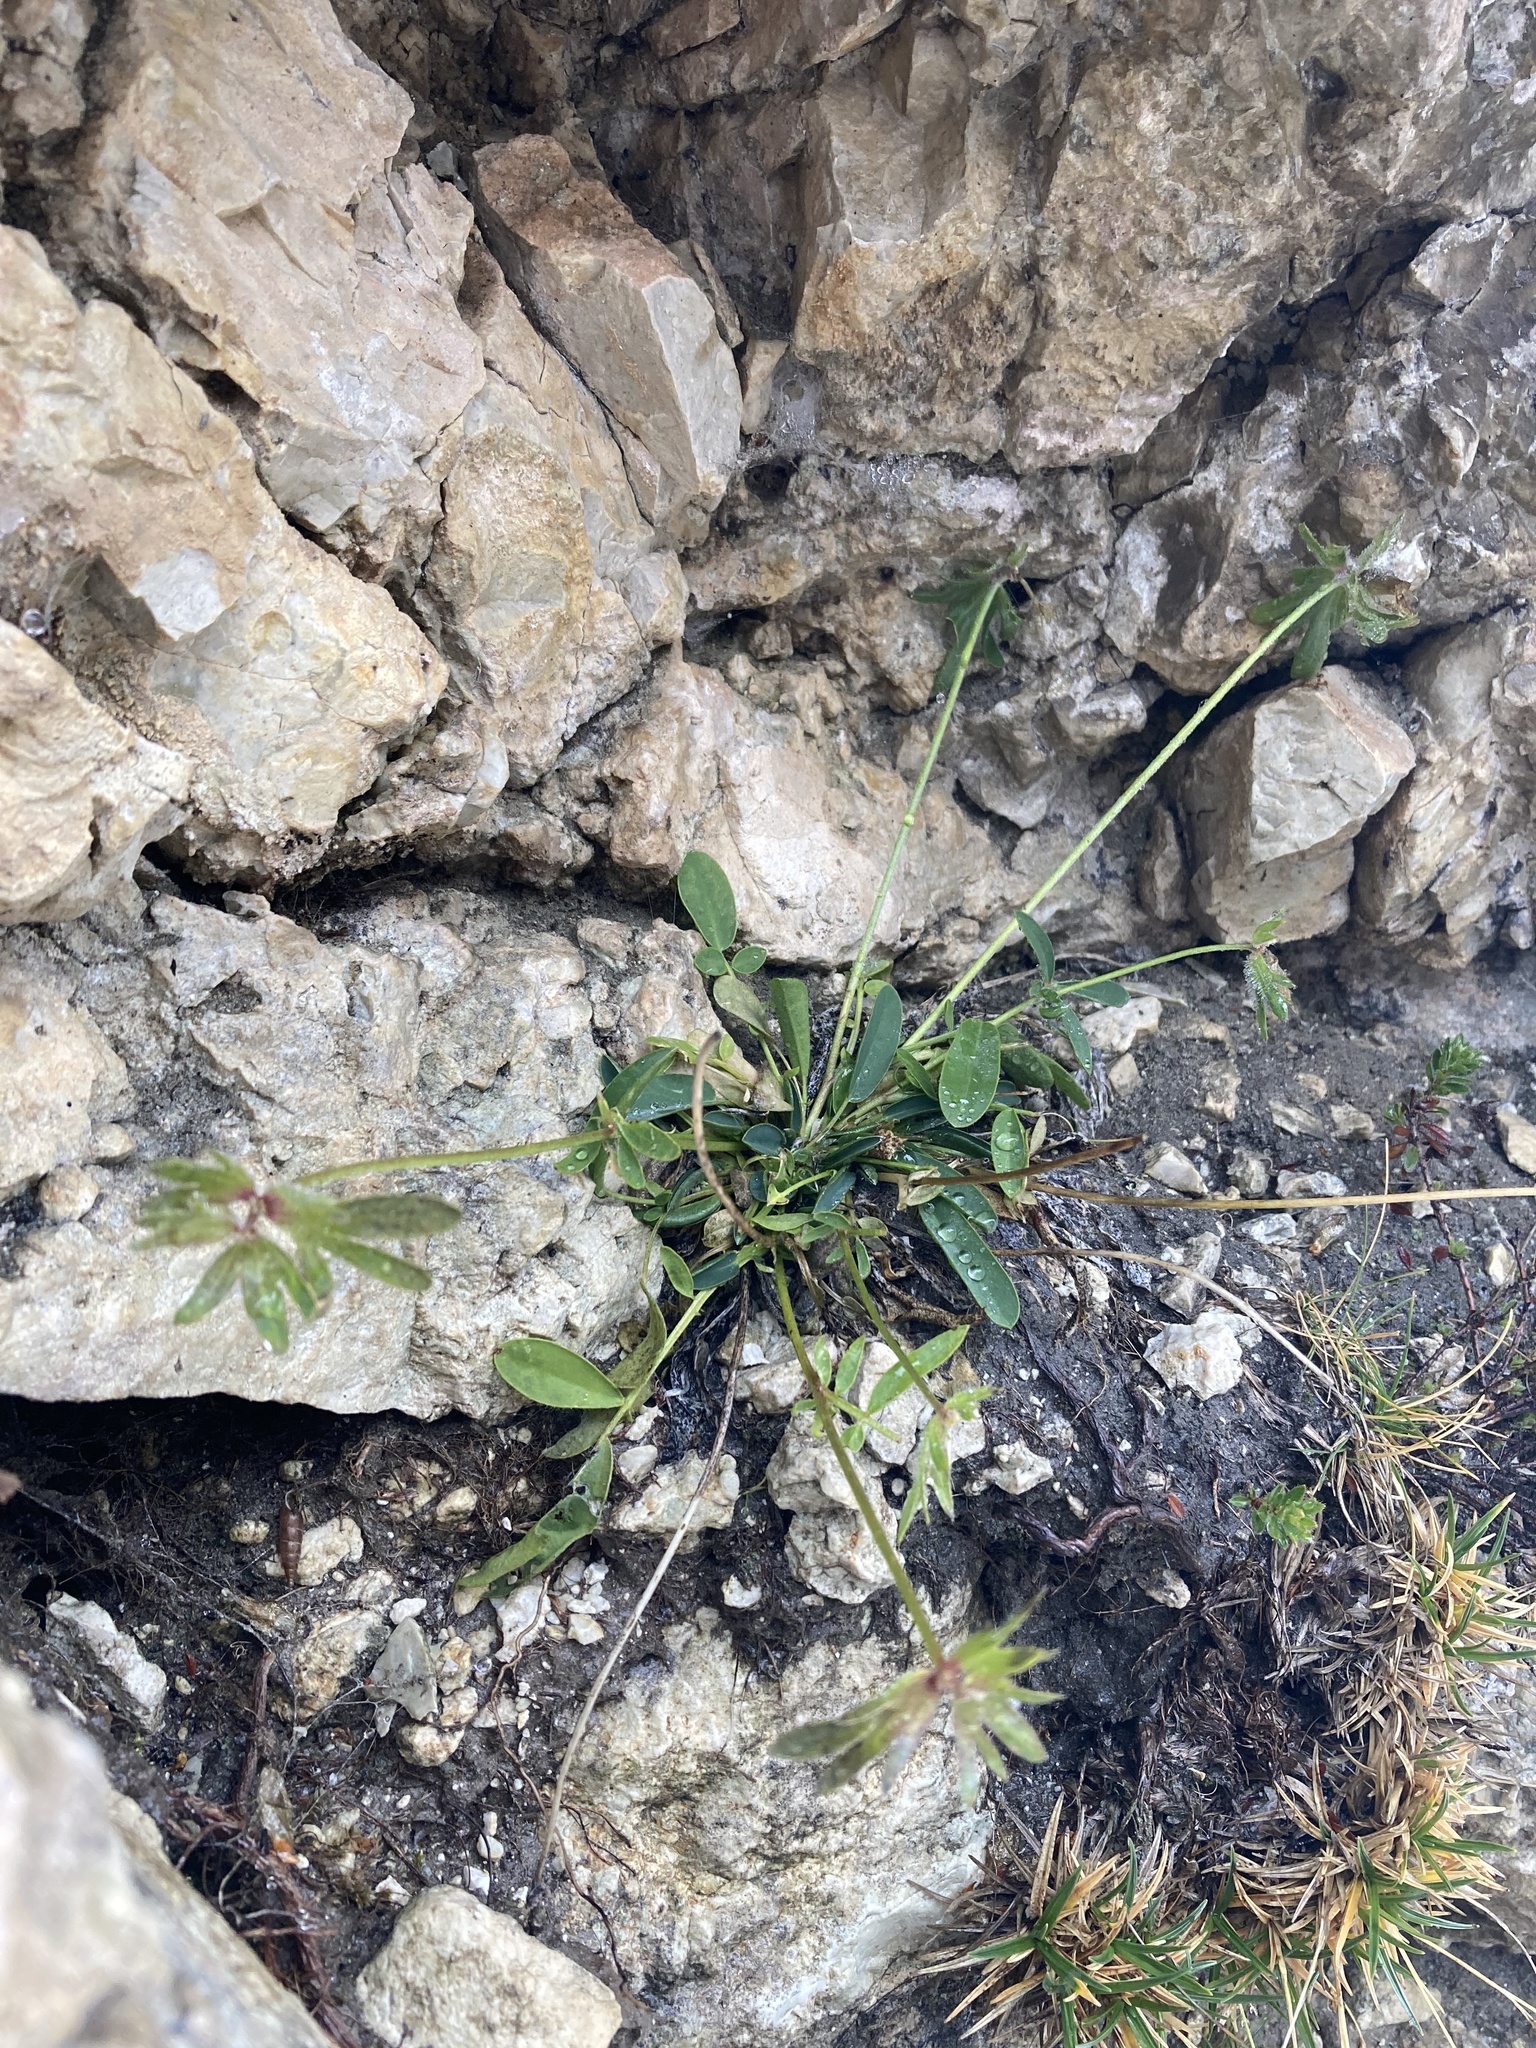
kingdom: Plantae
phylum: Tracheophyta
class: Magnoliopsida
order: Fabales
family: Fabaceae
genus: Anthyllis
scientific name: Anthyllis vulneraria
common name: Kidney vetch
